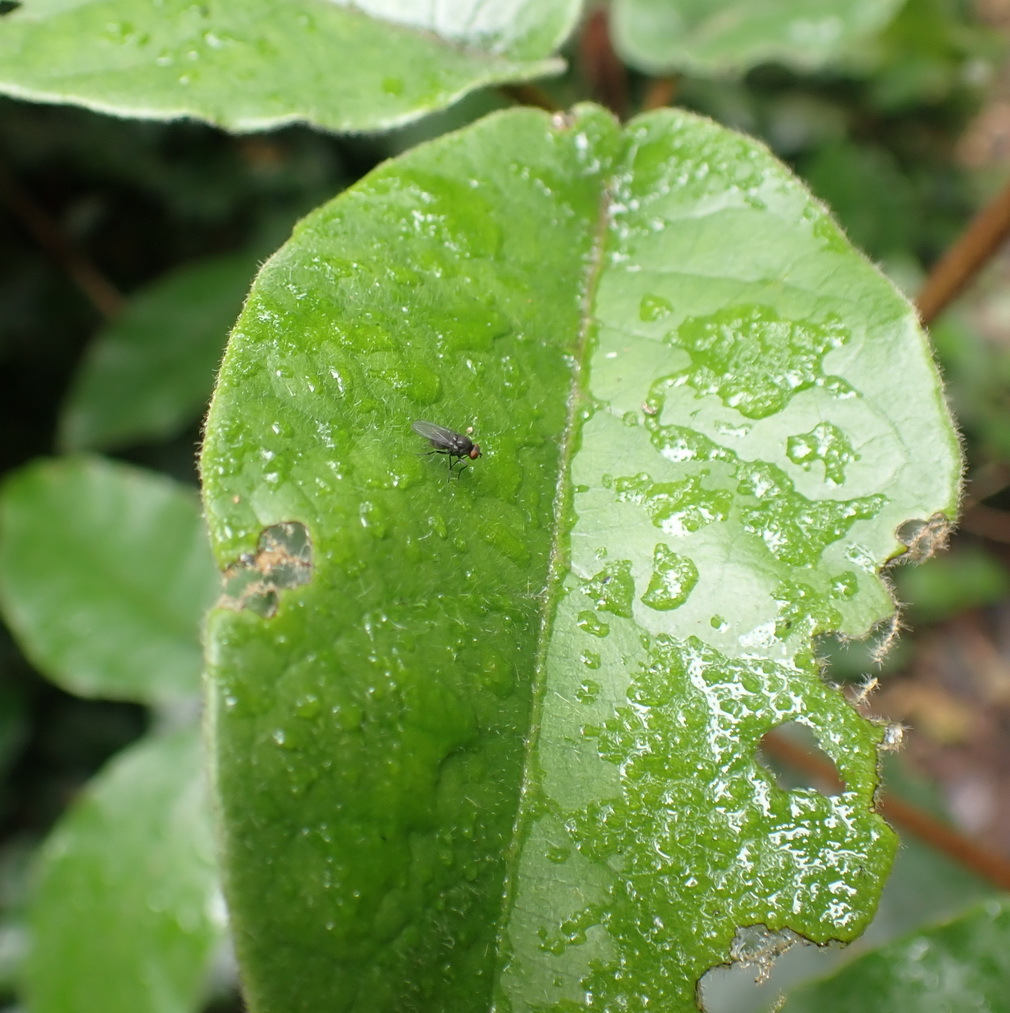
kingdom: Plantae
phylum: Tracheophyta
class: Magnoliopsida
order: Saxifragales
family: Hamamelidaceae
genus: Trichocladus
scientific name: Trichocladus crinitus
